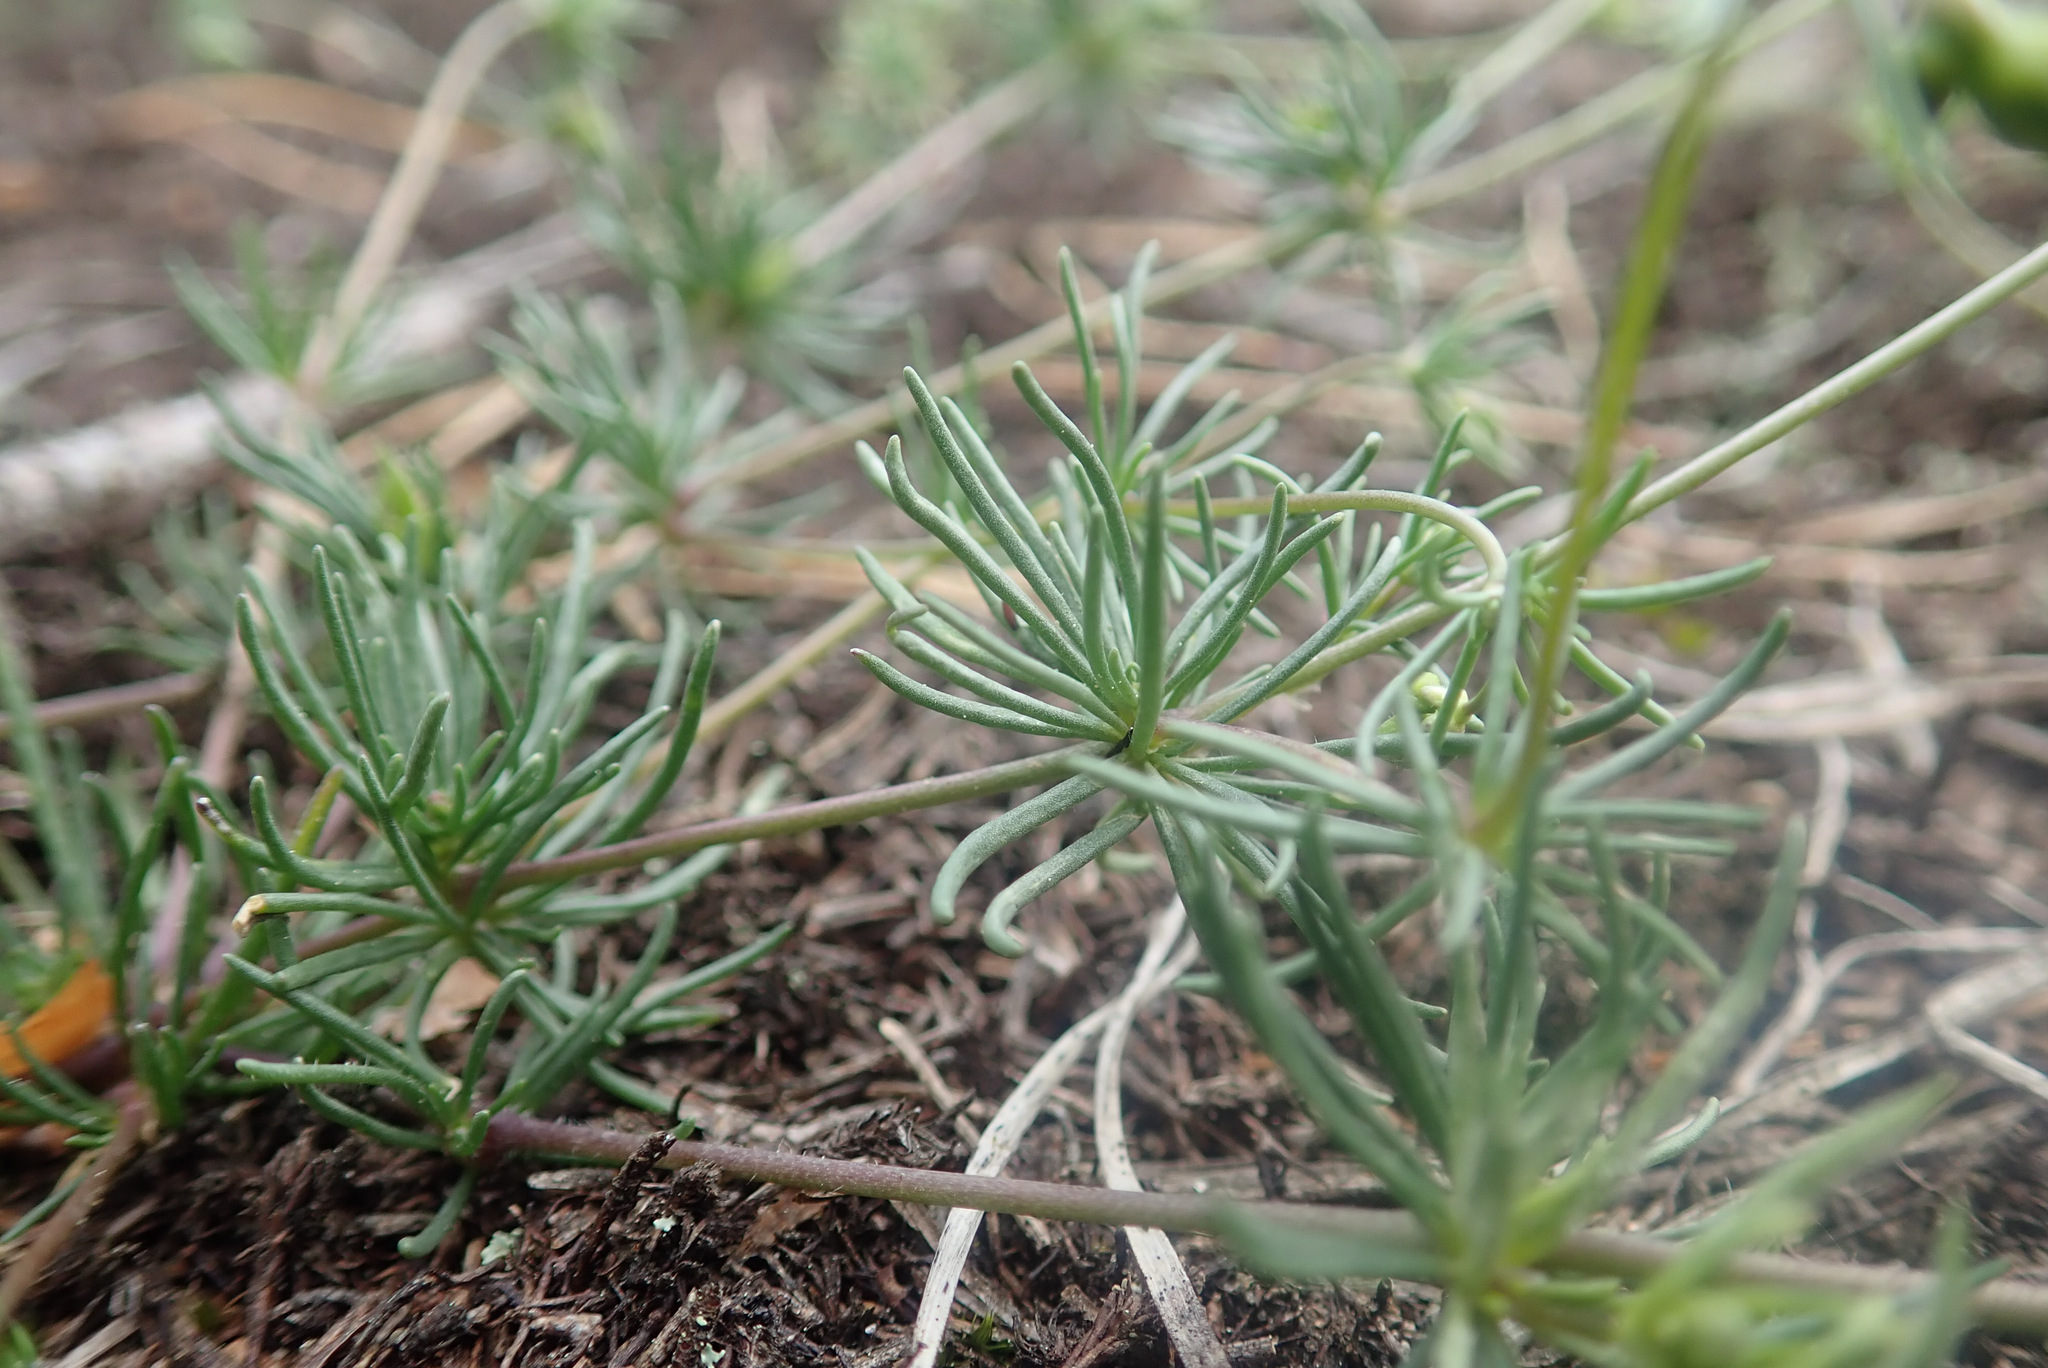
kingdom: Plantae
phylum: Tracheophyta
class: Magnoliopsida
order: Caryophyllales
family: Caryophyllaceae
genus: Spergula
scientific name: Spergula morisonii
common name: Pearlwort spurrey
